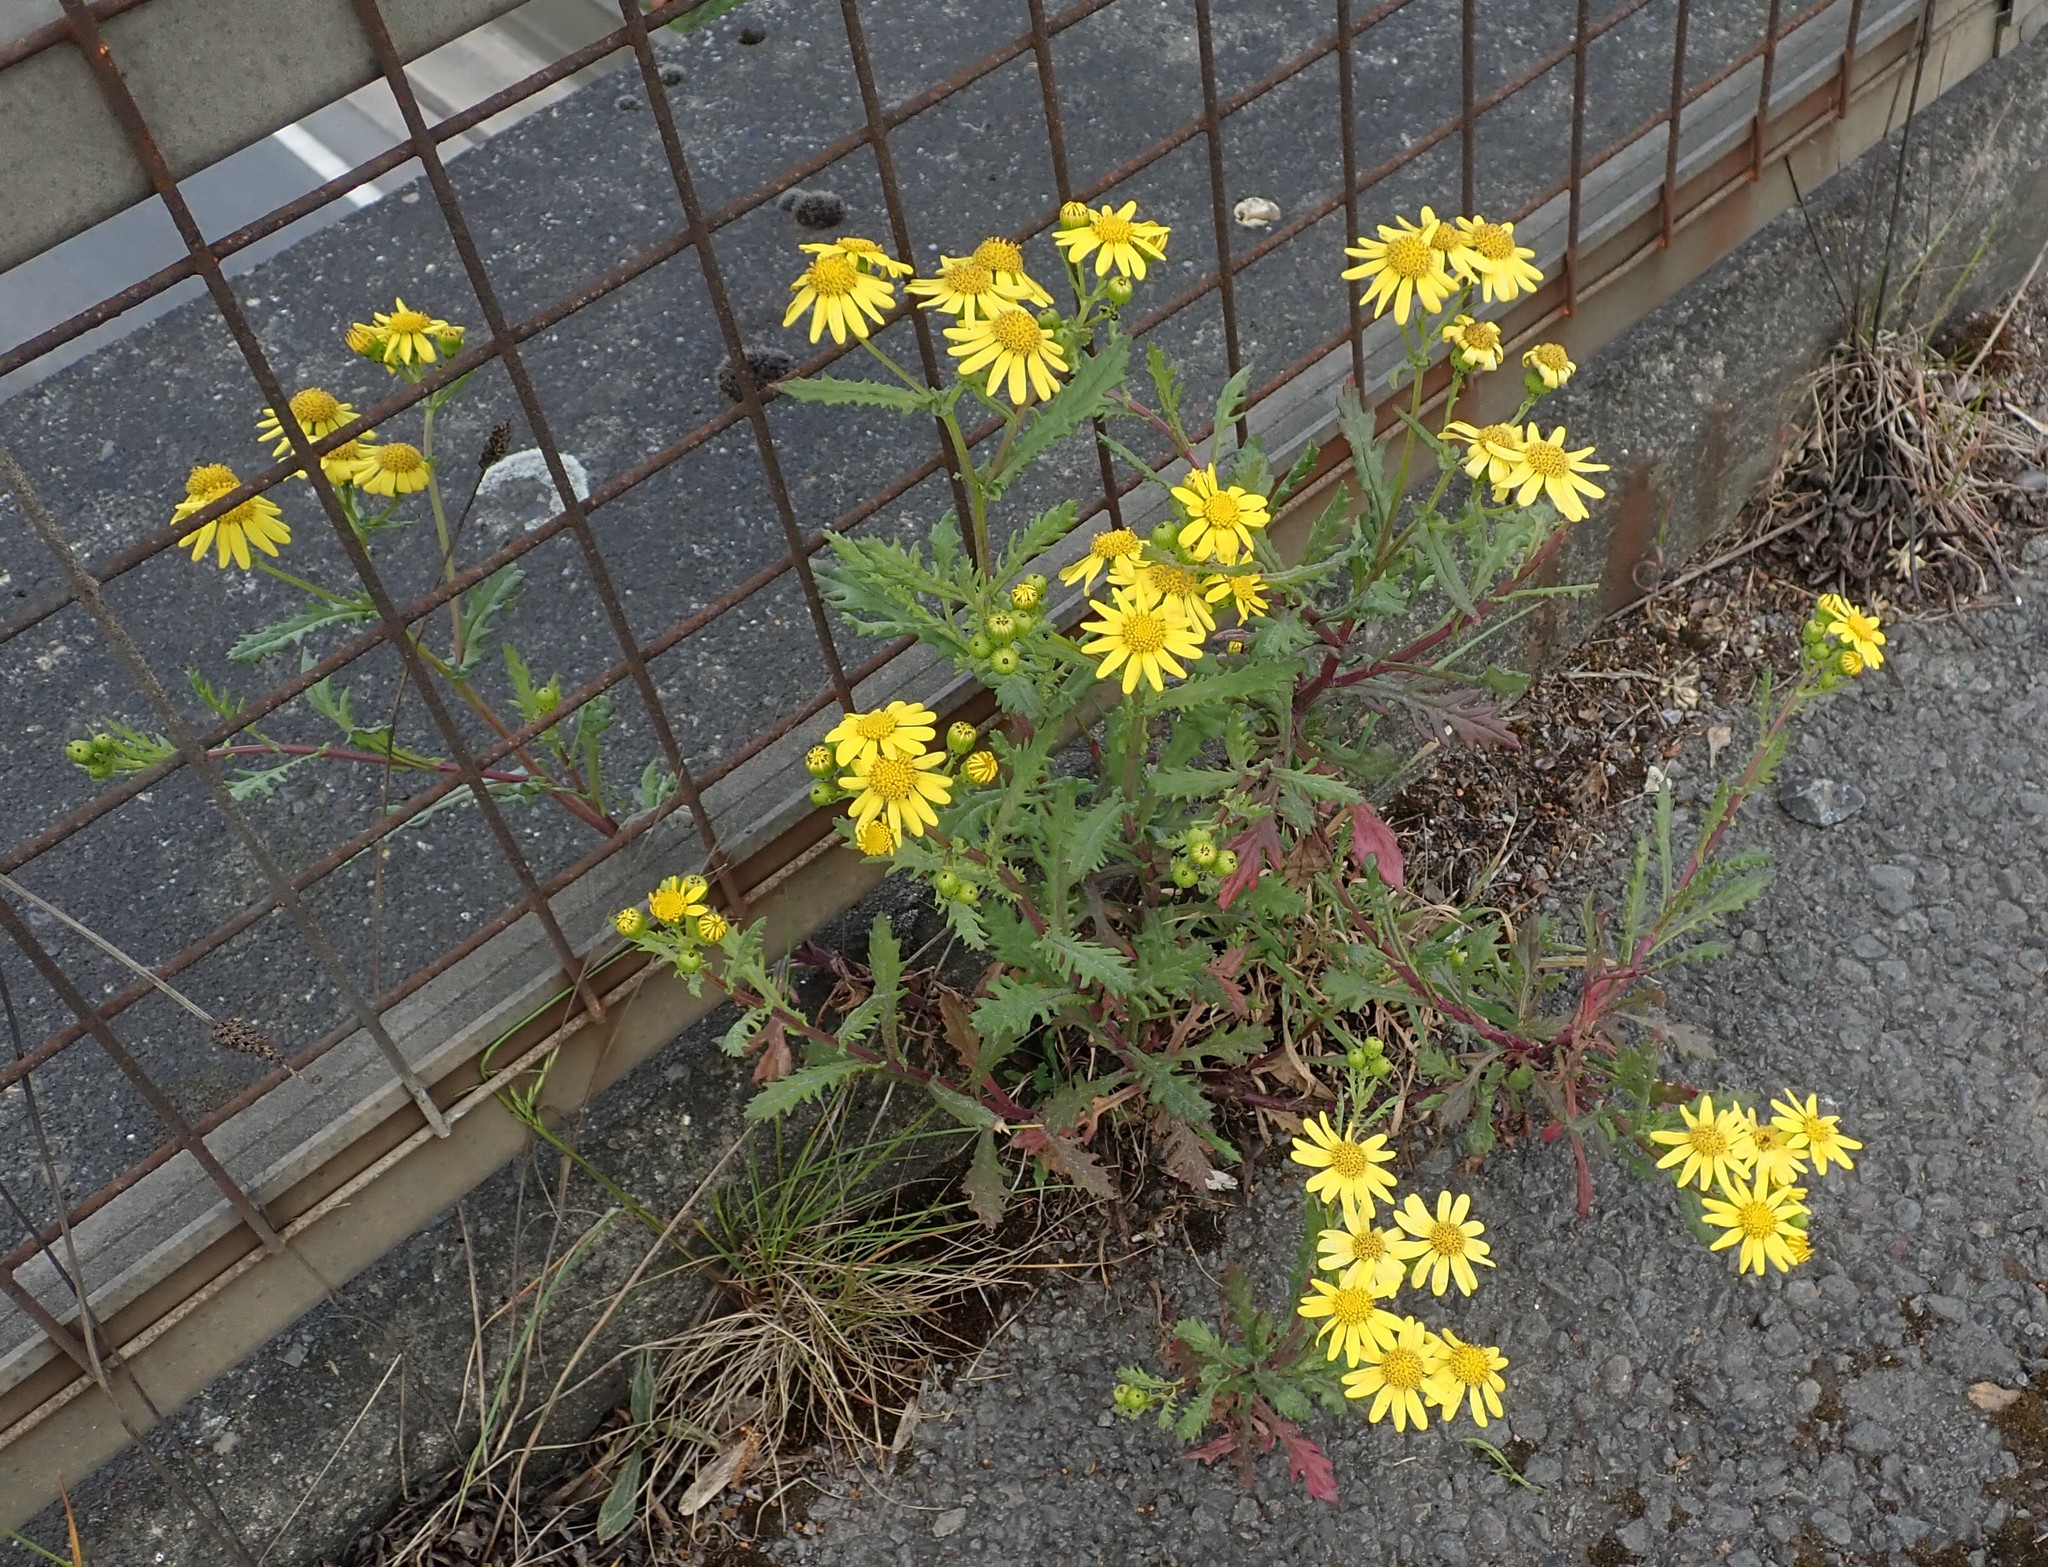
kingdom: Plantae
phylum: Tracheophyta
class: Magnoliopsida
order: Asterales
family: Asteraceae
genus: Senecio
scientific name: Senecio squalidus
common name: Oxford ragwort
